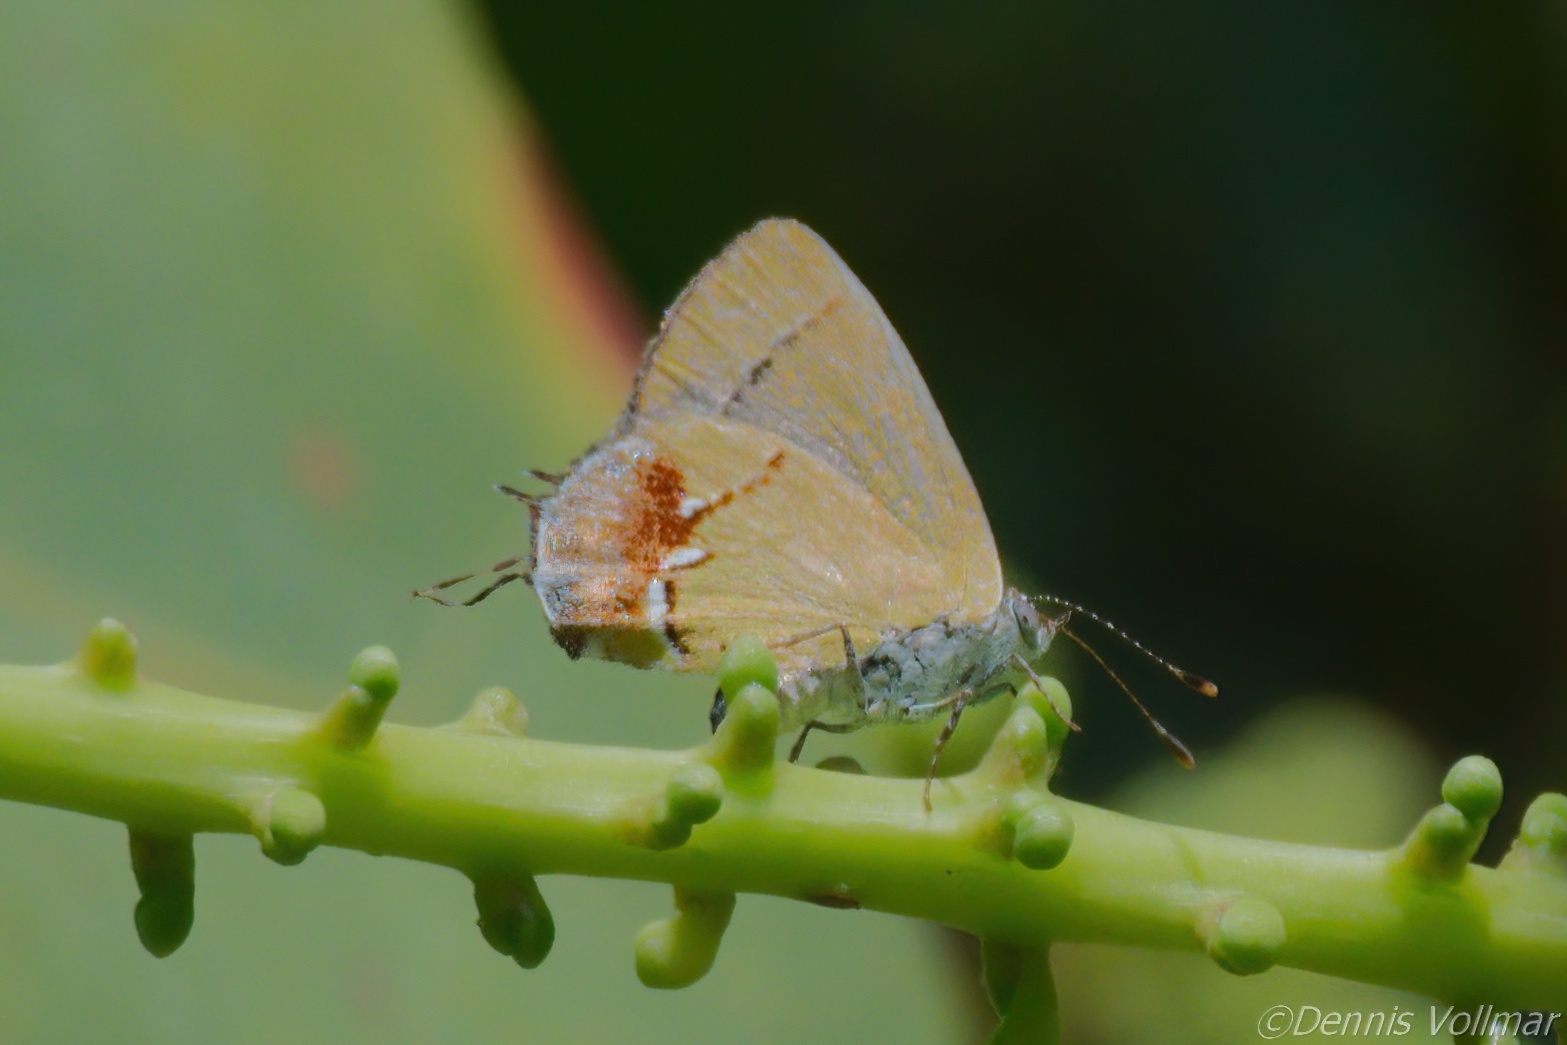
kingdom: Animalia
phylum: Arthropoda
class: Insecta
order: Lepidoptera
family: Lycaenidae
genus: Thecla
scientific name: Thecla maesites
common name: Verde azul hairstreak
